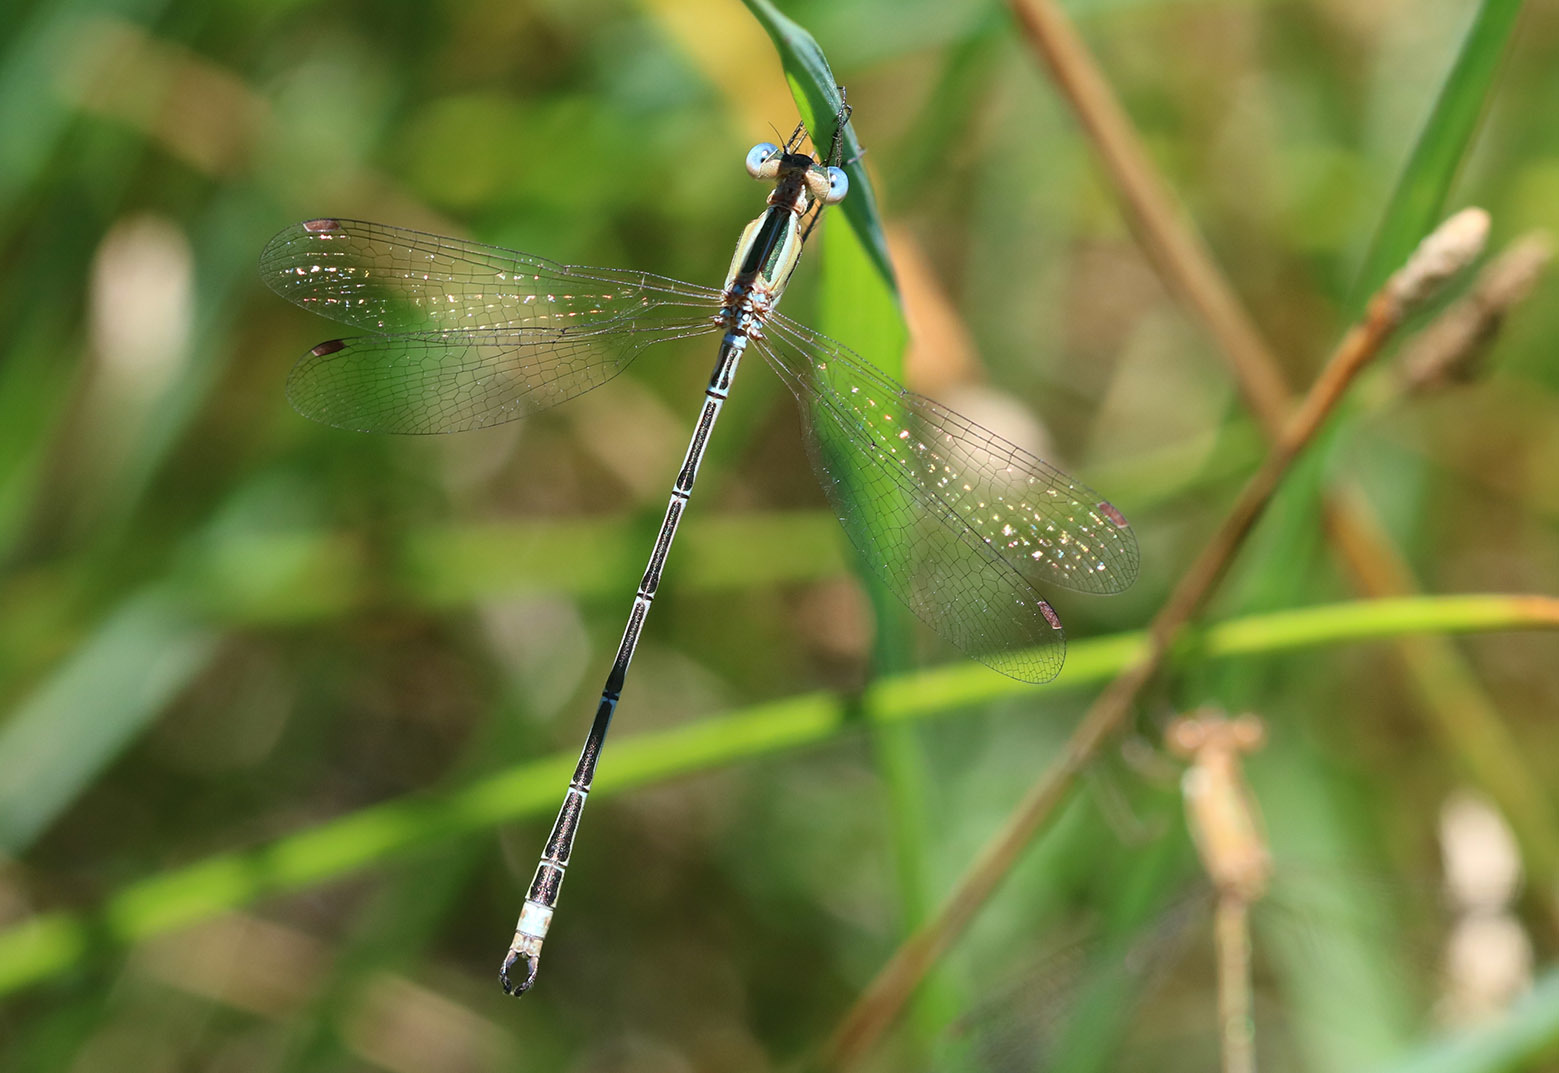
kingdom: Animalia
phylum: Arthropoda
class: Insecta
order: Odonata
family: Lestidae
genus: Lestes
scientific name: Lestes undulatus
